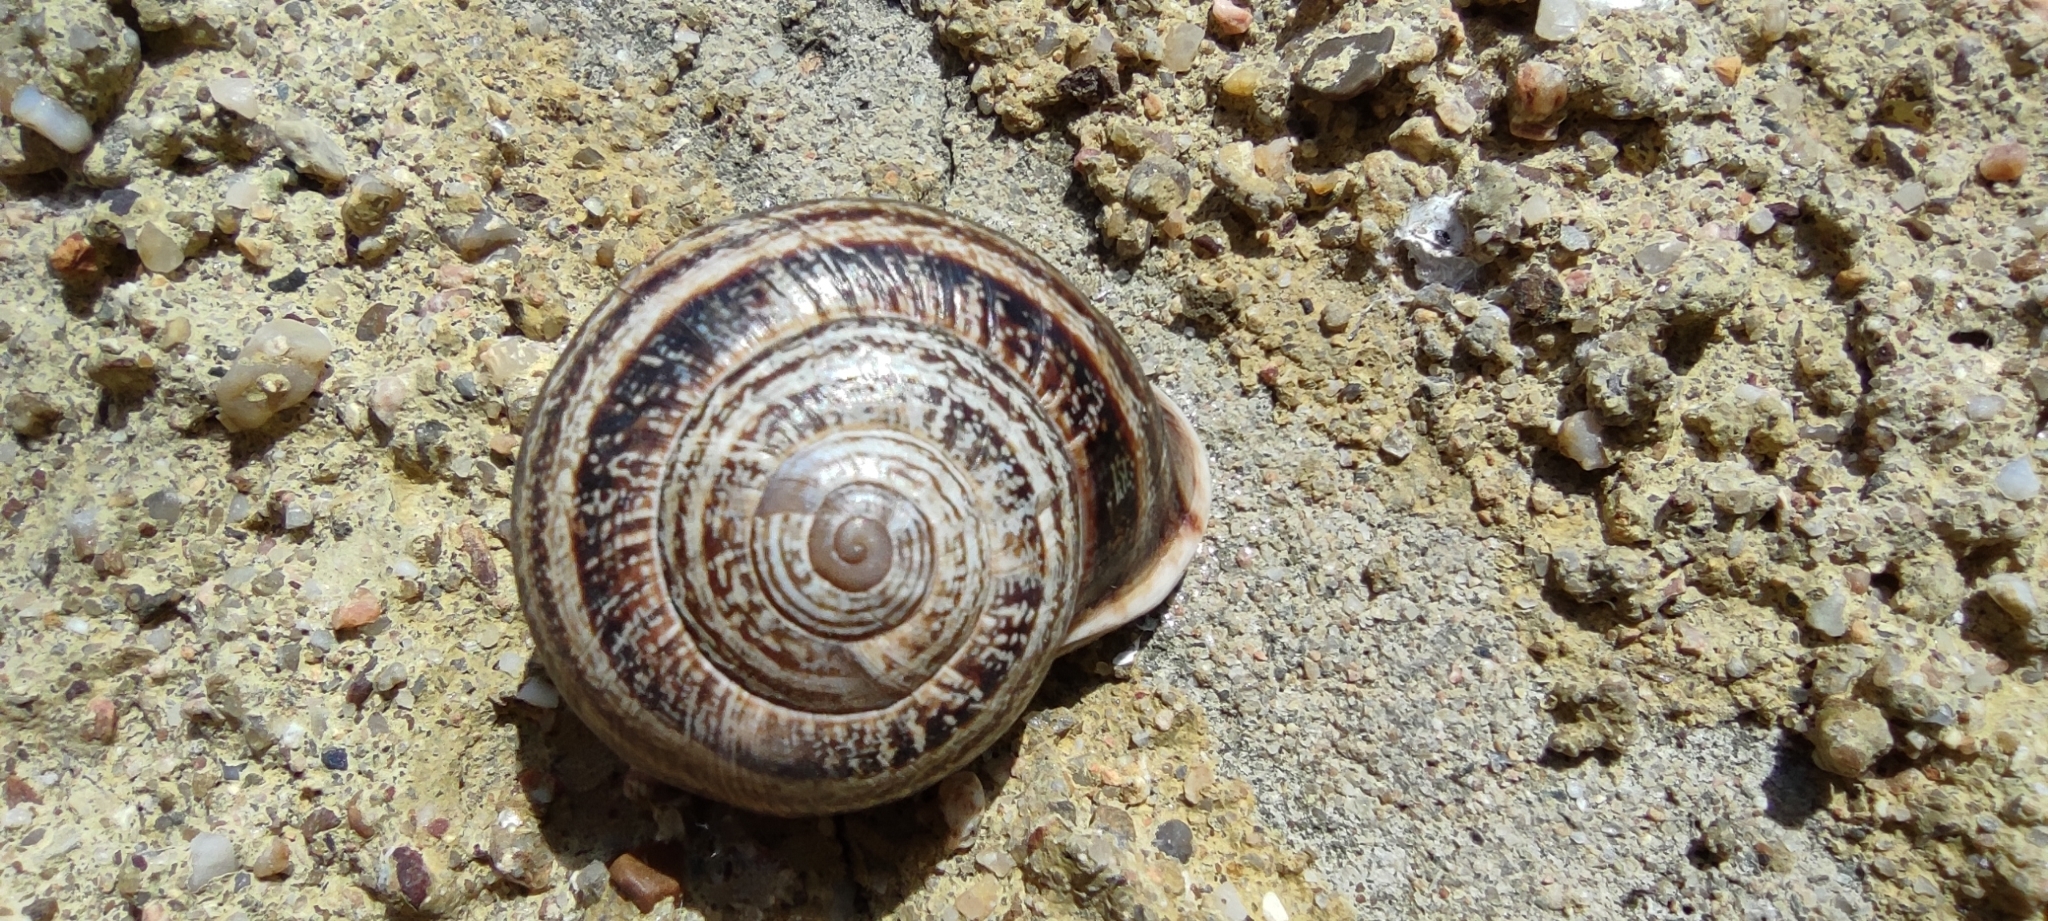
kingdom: Animalia
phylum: Mollusca
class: Gastropoda
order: Stylommatophora
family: Helicidae
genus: Otala
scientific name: Otala lactea
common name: Milk snail
